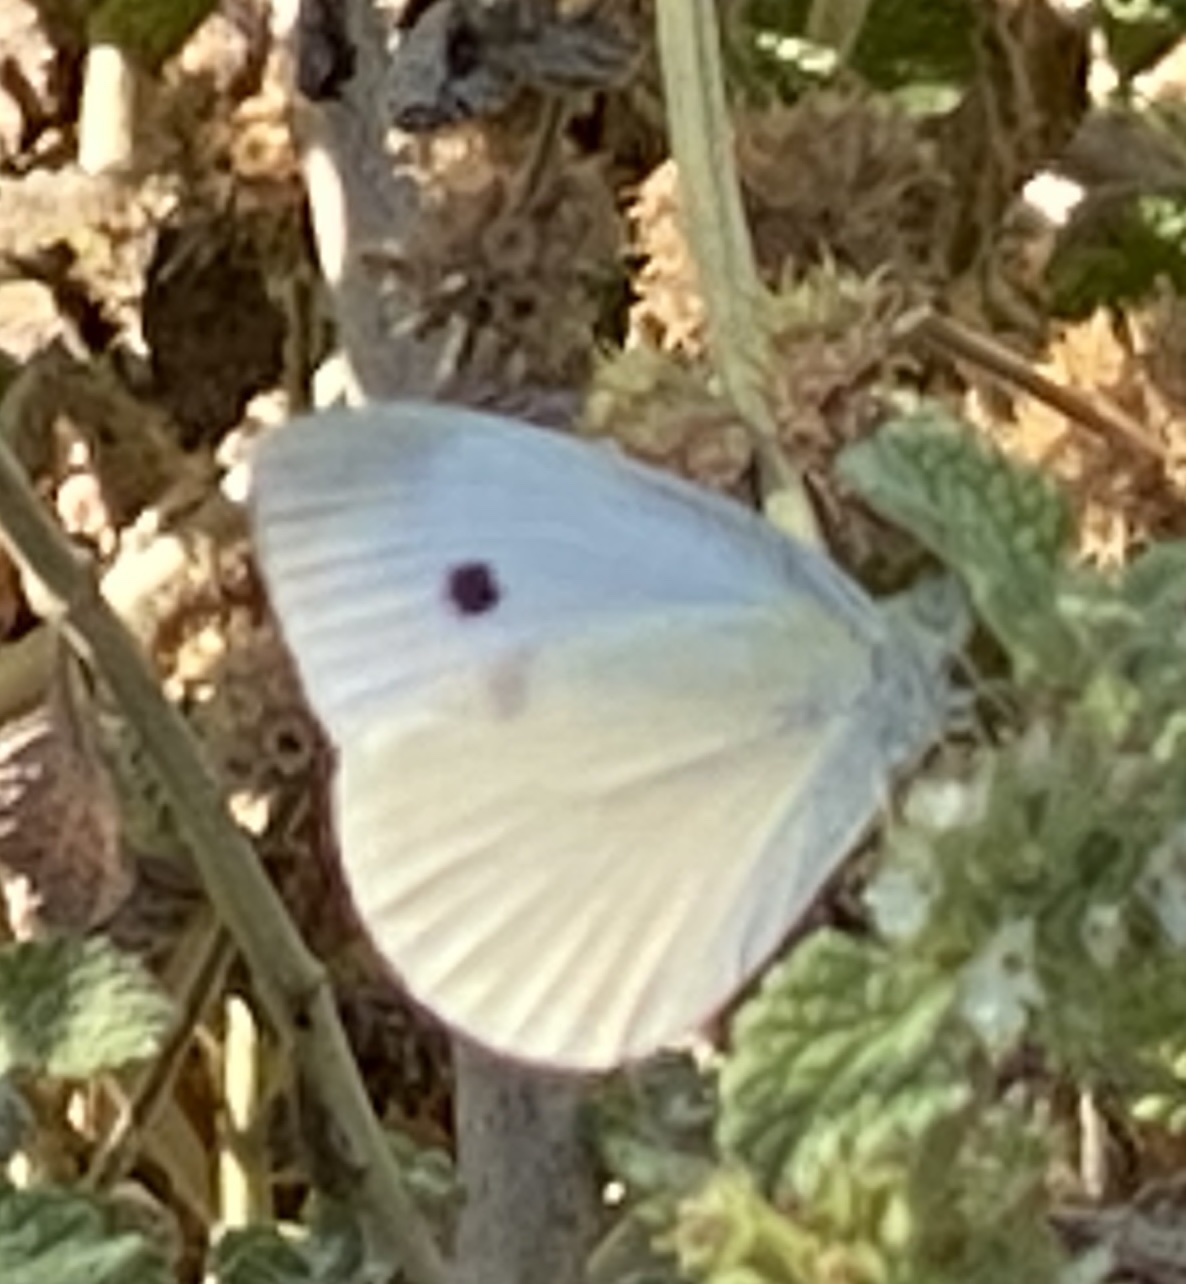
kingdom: Animalia
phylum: Arthropoda
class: Insecta
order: Lepidoptera
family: Pieridae
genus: Pieris
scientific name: Pieris rapae
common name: Small white
